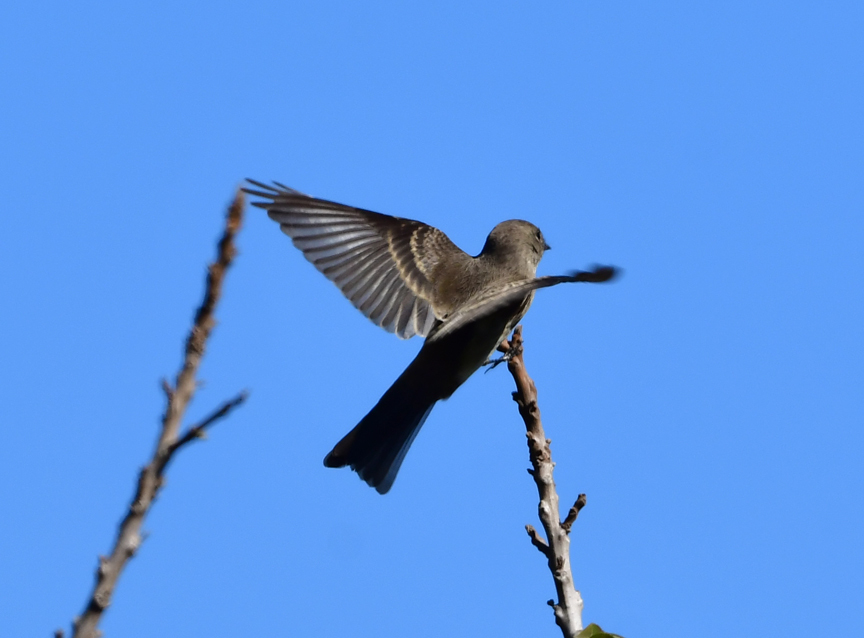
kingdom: Animalia
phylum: Chordata
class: Aves
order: Passeriformes
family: Tyrannidae
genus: Contopus
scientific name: Contopus sordidulus
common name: Western wood-pewee
